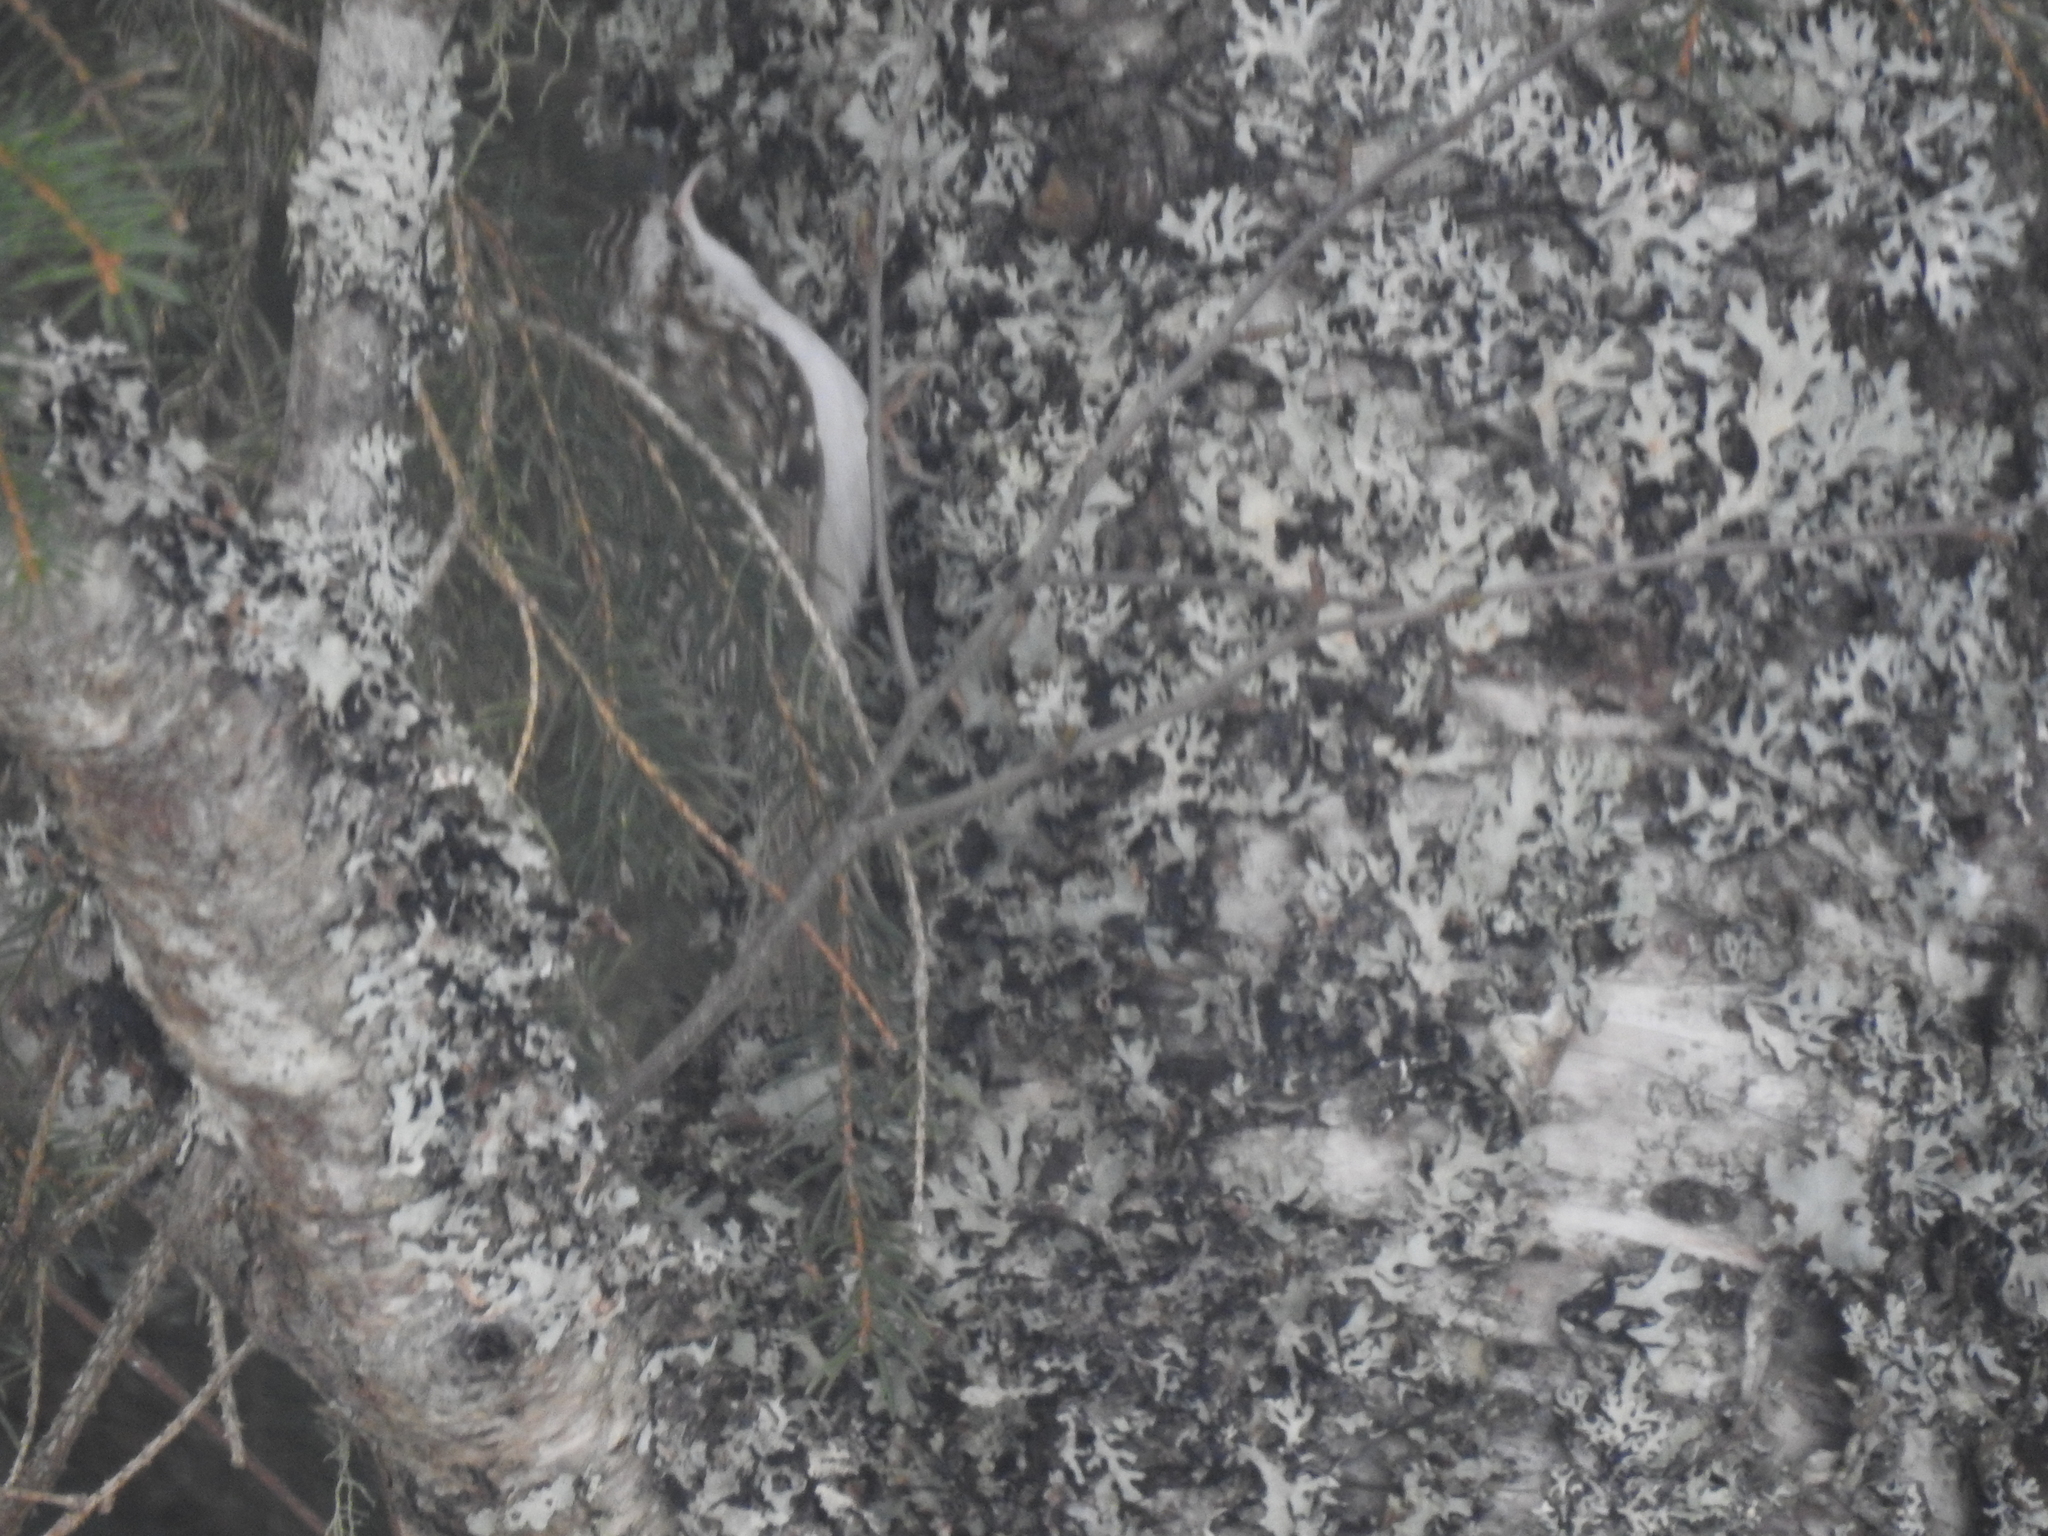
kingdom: Animalia
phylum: Chordata
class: Aves
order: Passeriformes
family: Certhiidae
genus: Certhia
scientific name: Certhia familiaris
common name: Eurasian treecreeper
